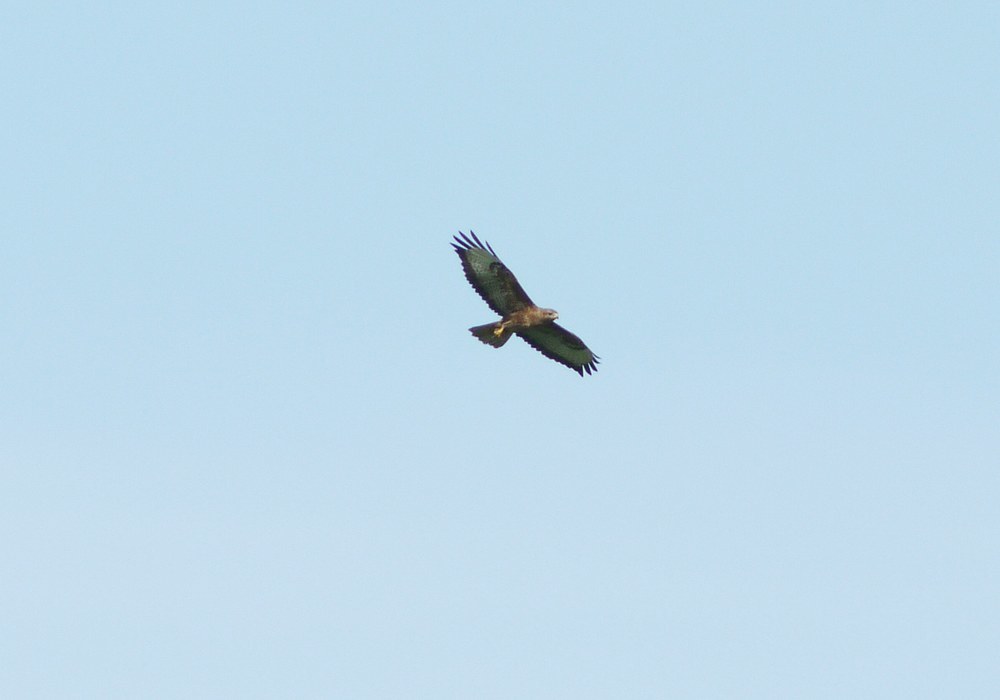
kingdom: Animalia
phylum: Chordata
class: Aves
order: Accipitriformes
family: Accipitridae
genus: Buteo
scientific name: Buteo buteo
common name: Common buzzard
